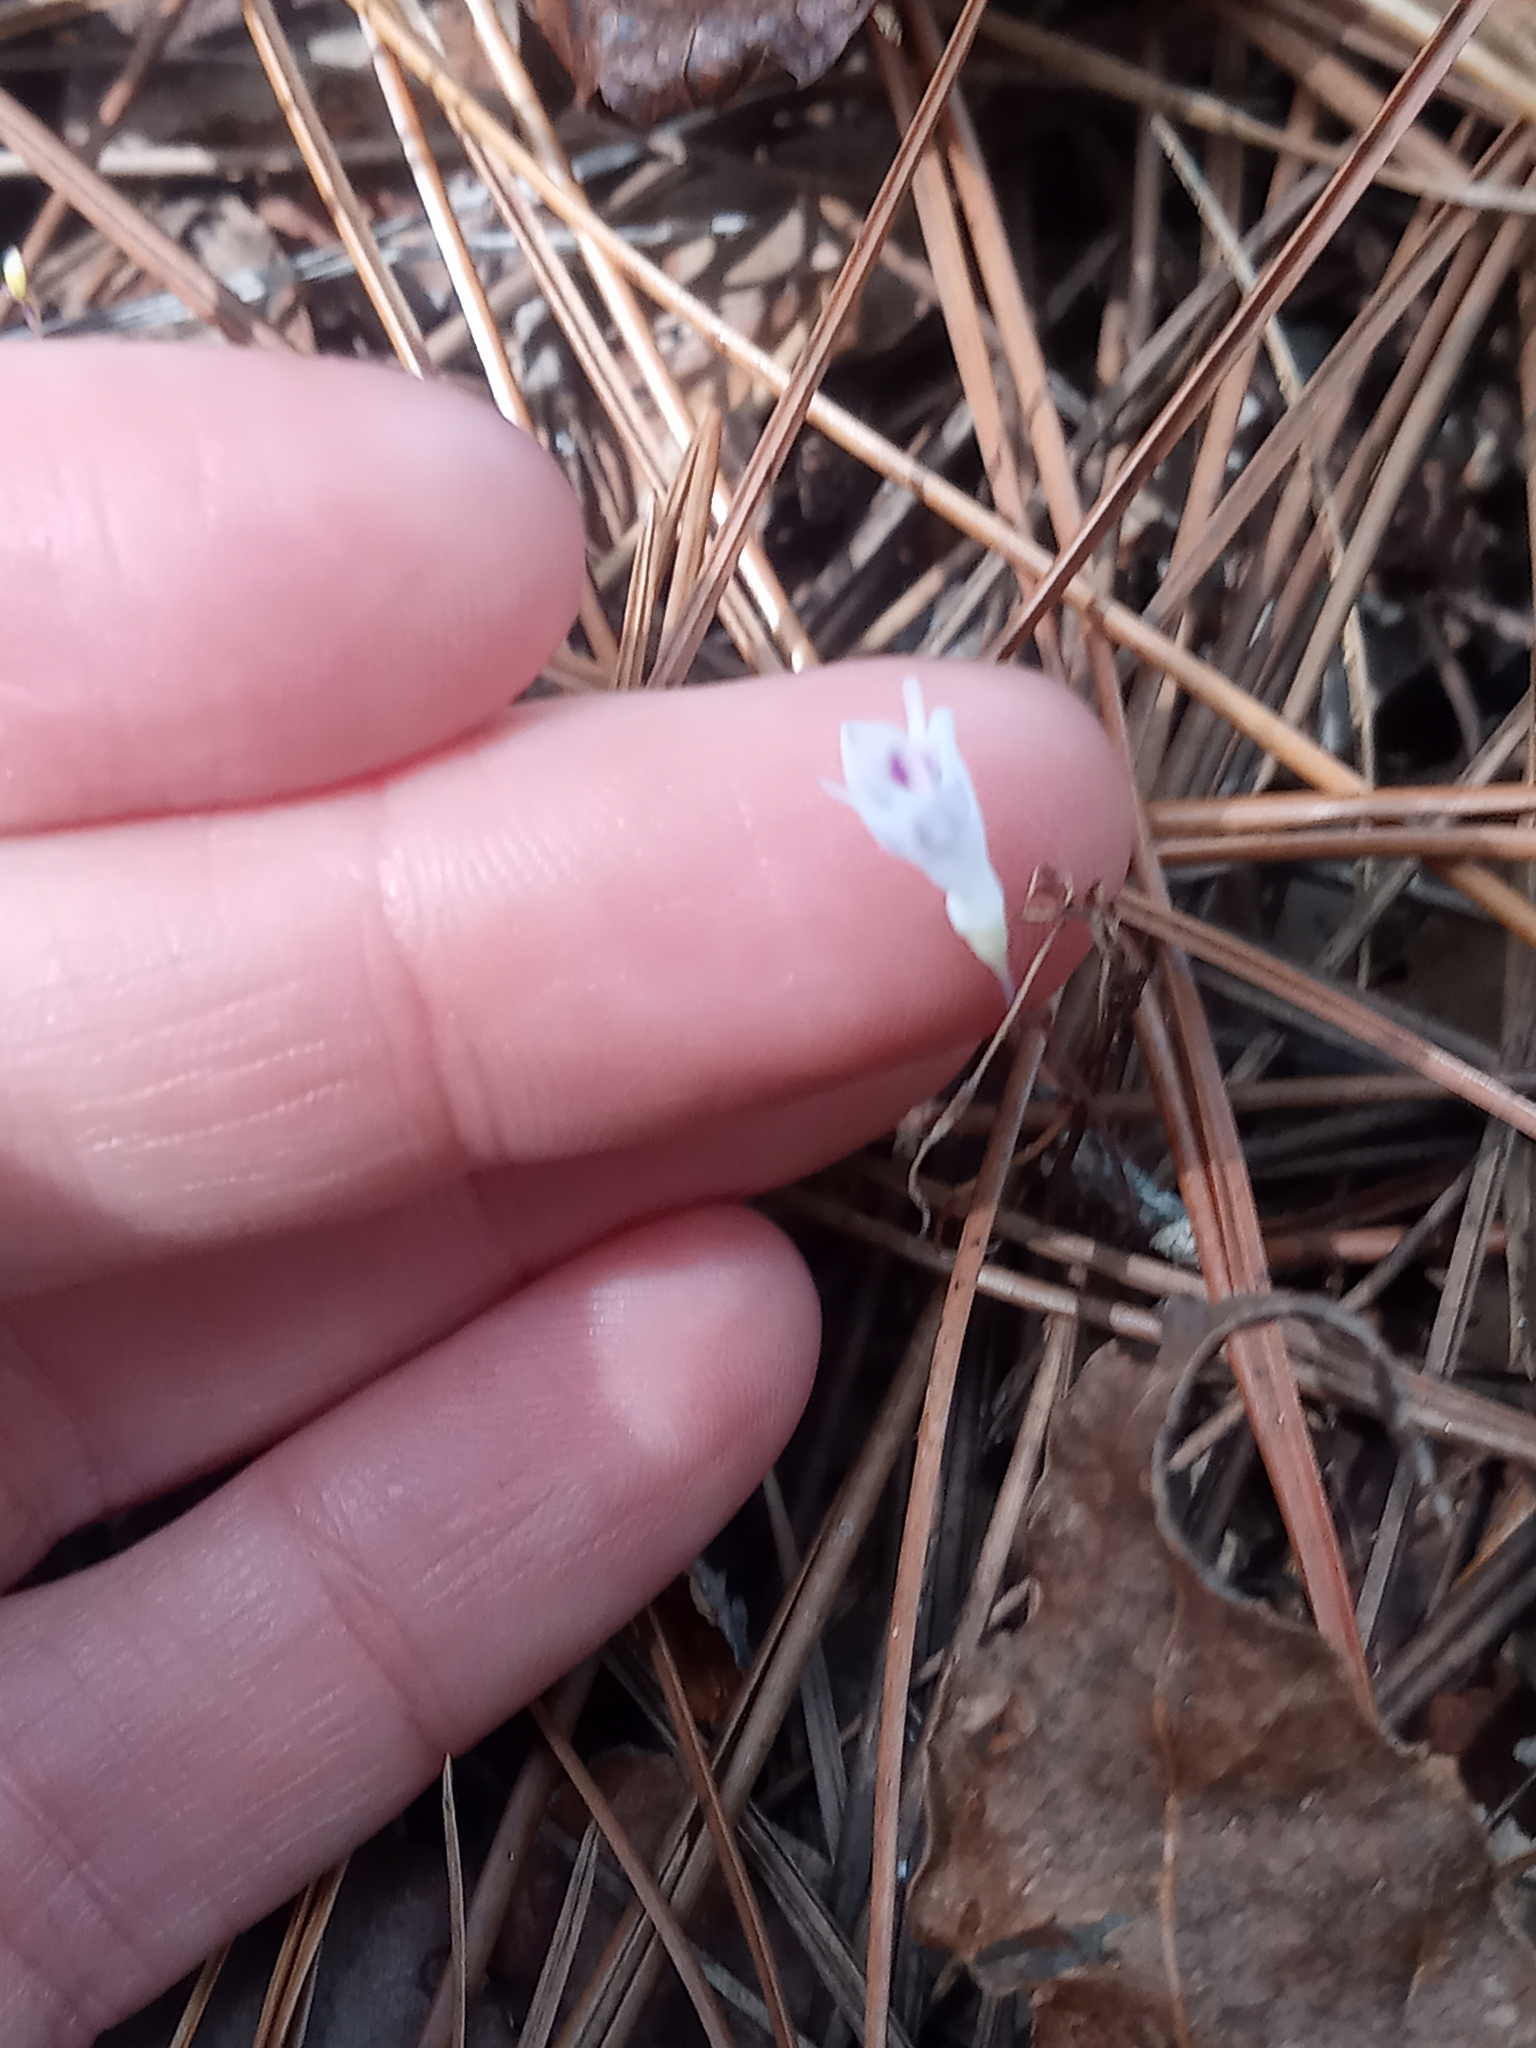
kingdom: Plantae
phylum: Tracheophyta
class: Liliopsida
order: Dioscoreales
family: Burmanniaceae
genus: Apteria
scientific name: Apteria aphylla
